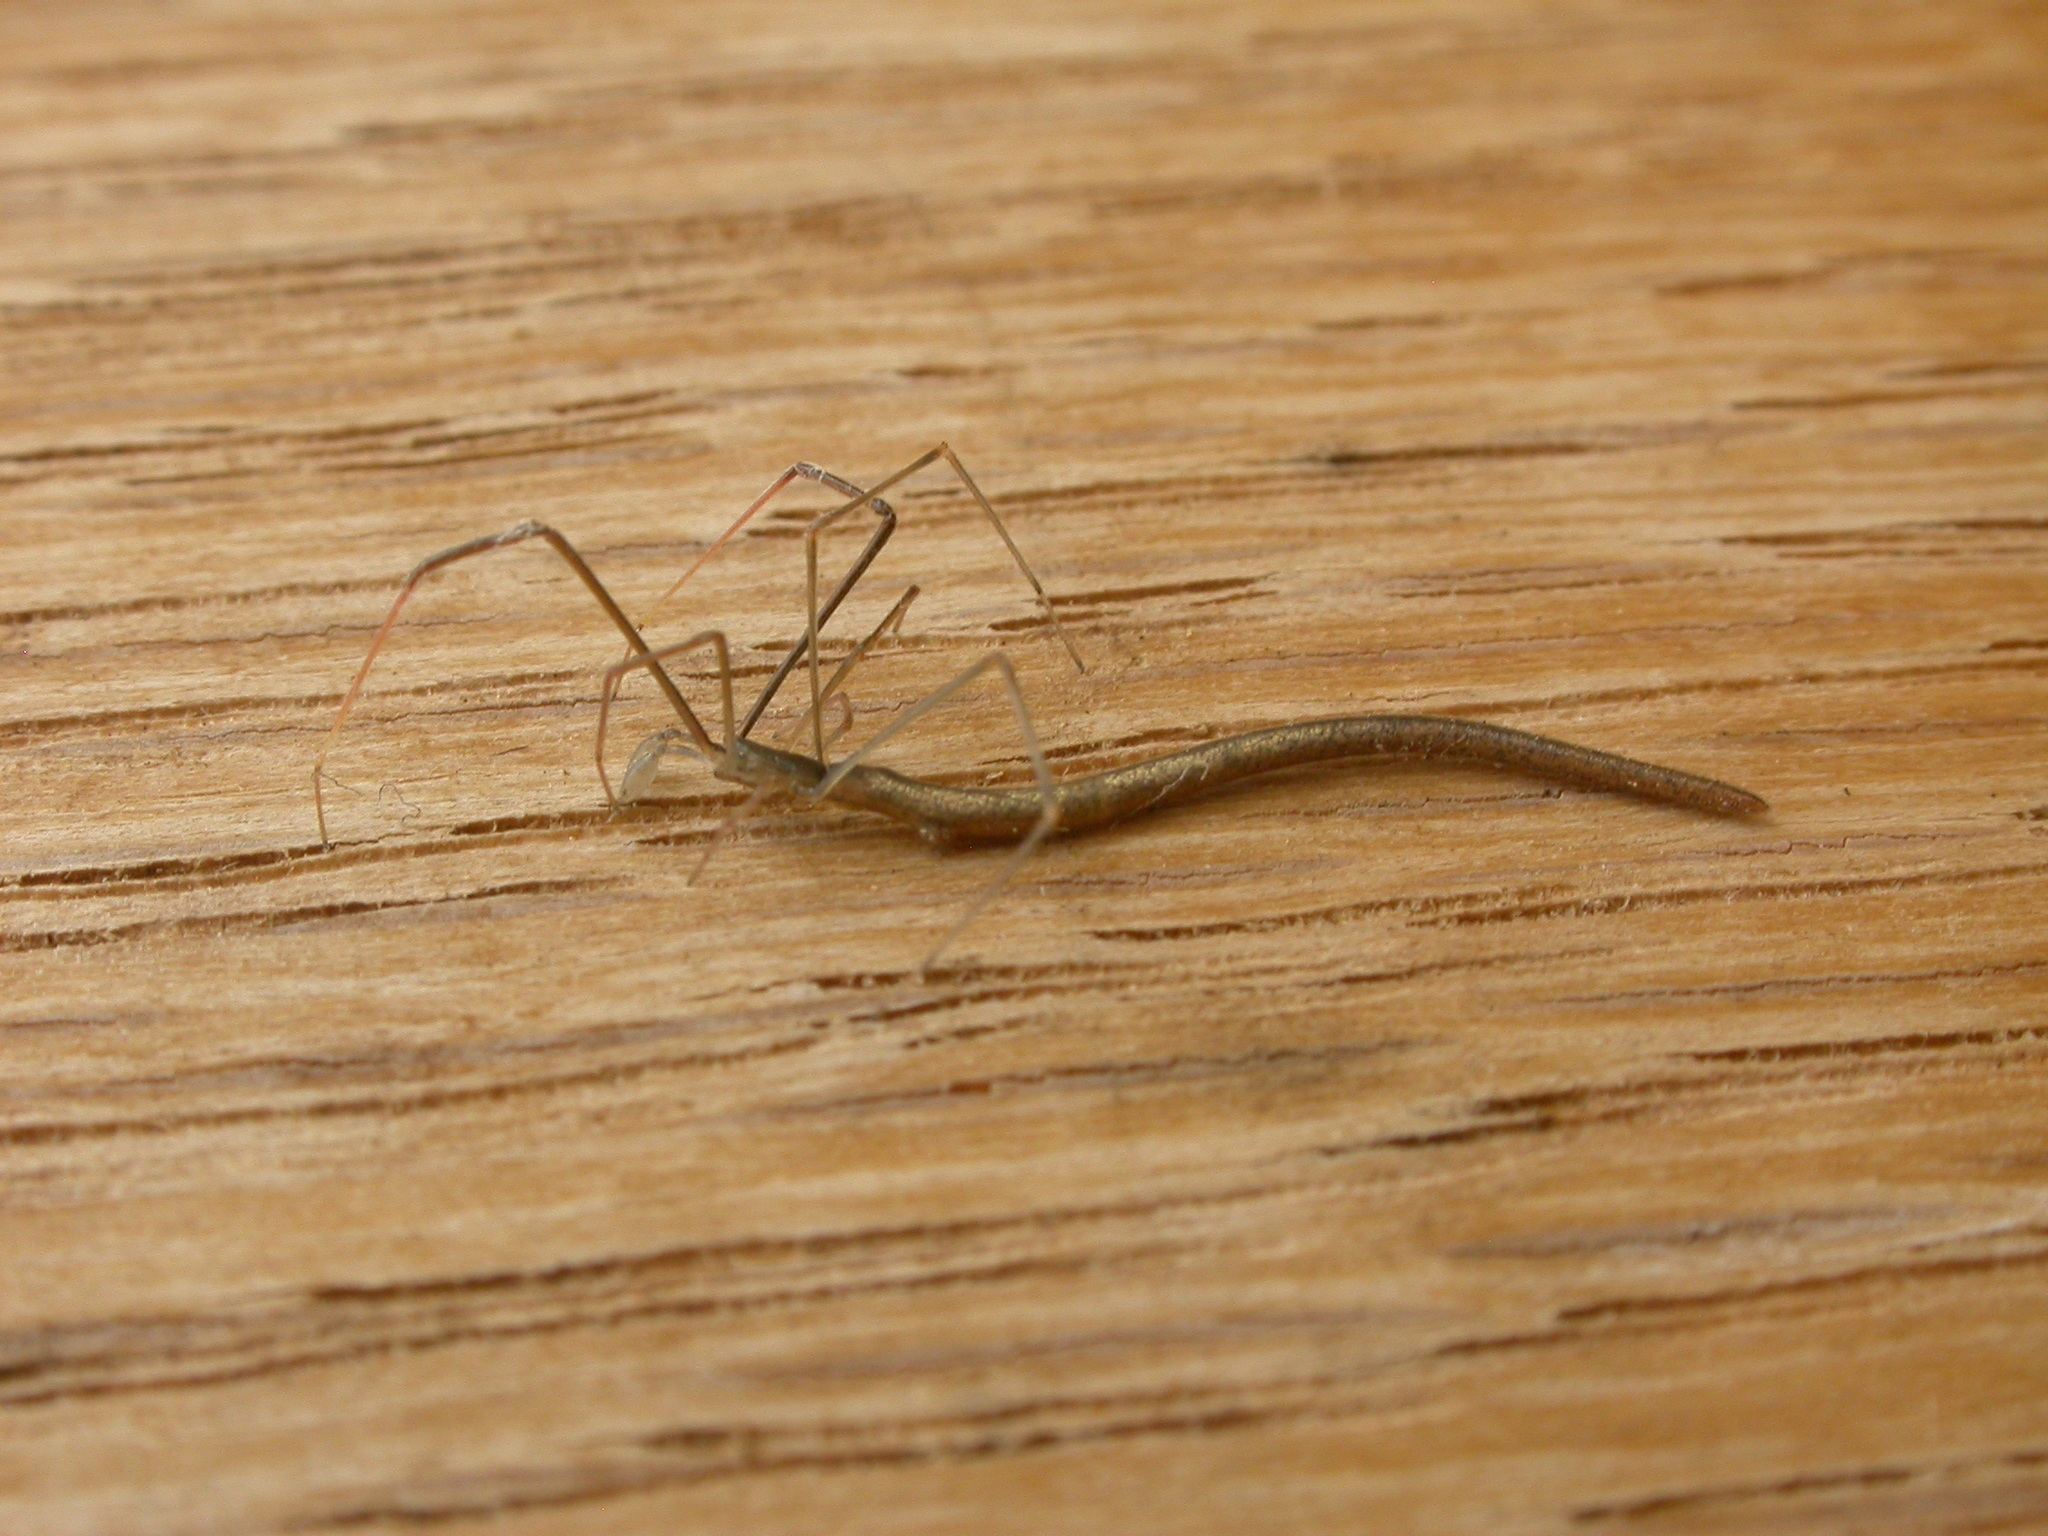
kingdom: Animalia
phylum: Arthropoda
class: Arachnida
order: Araneae
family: Theridiidae
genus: Ariamnes
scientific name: Ariamnes colubrinus
